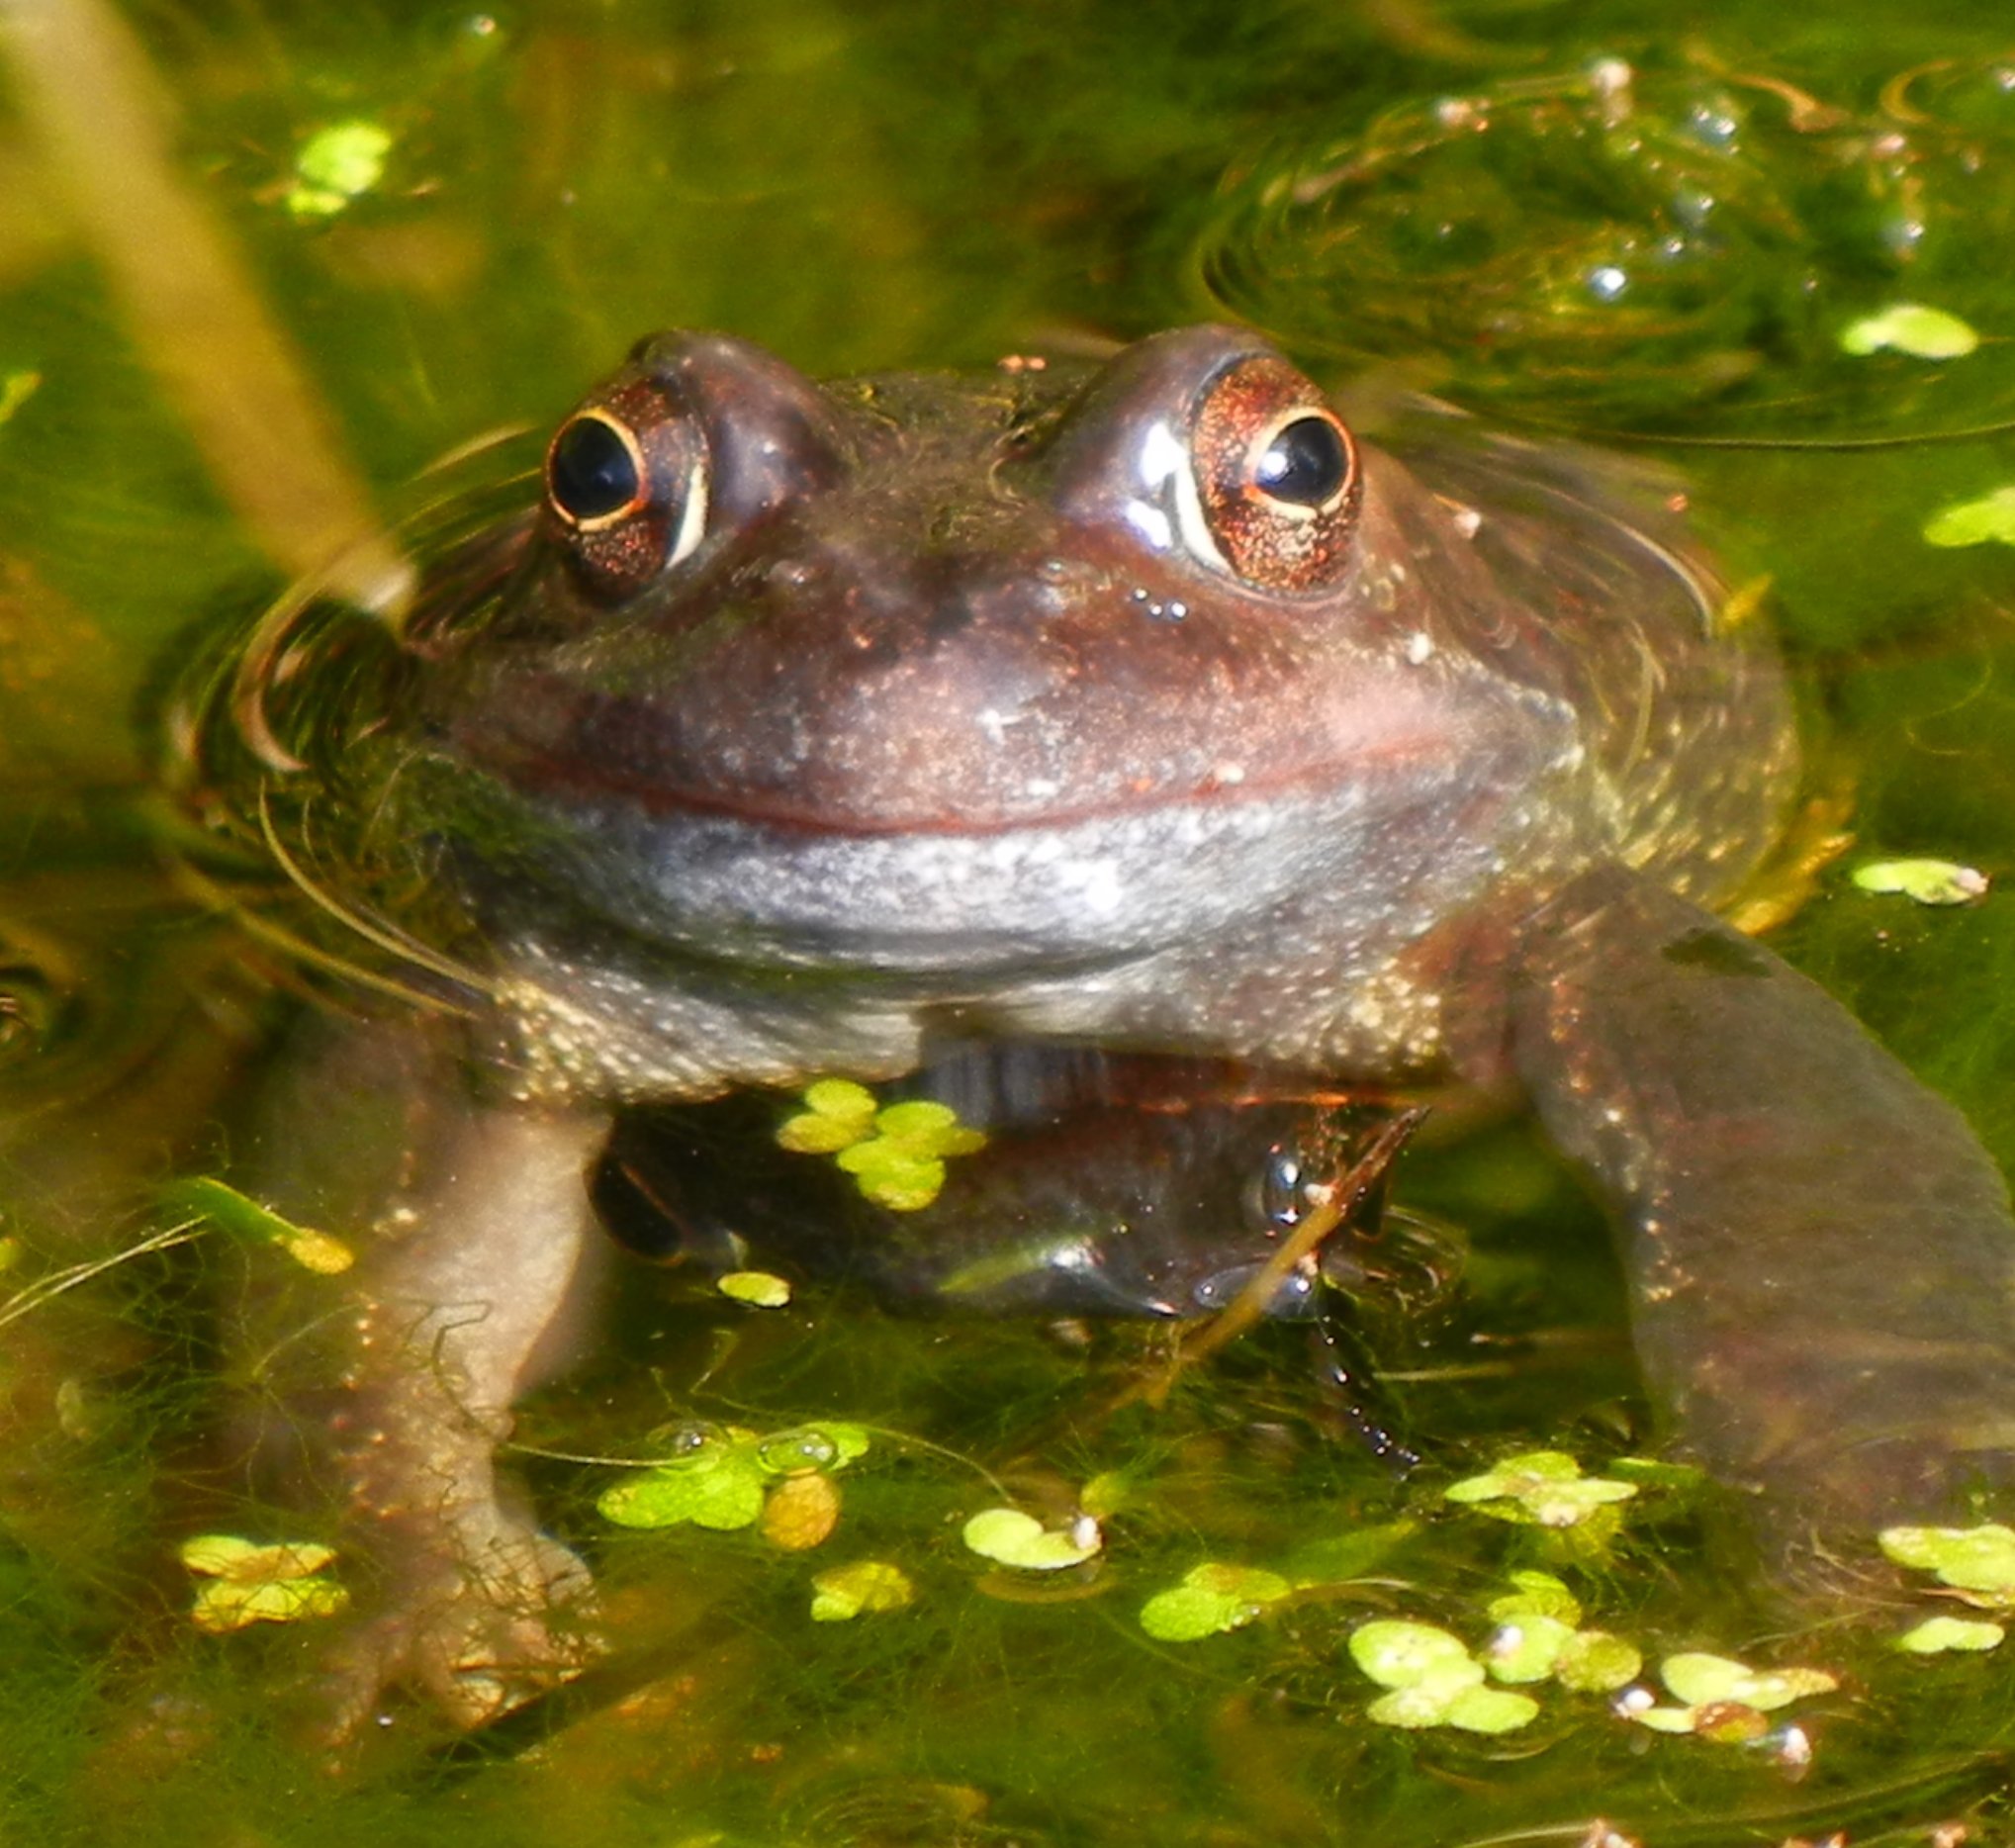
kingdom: Animalia
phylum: Chordata
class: Amphibia
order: Anura
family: Ranidae
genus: Rana
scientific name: Rana temporaria
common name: Common frog
